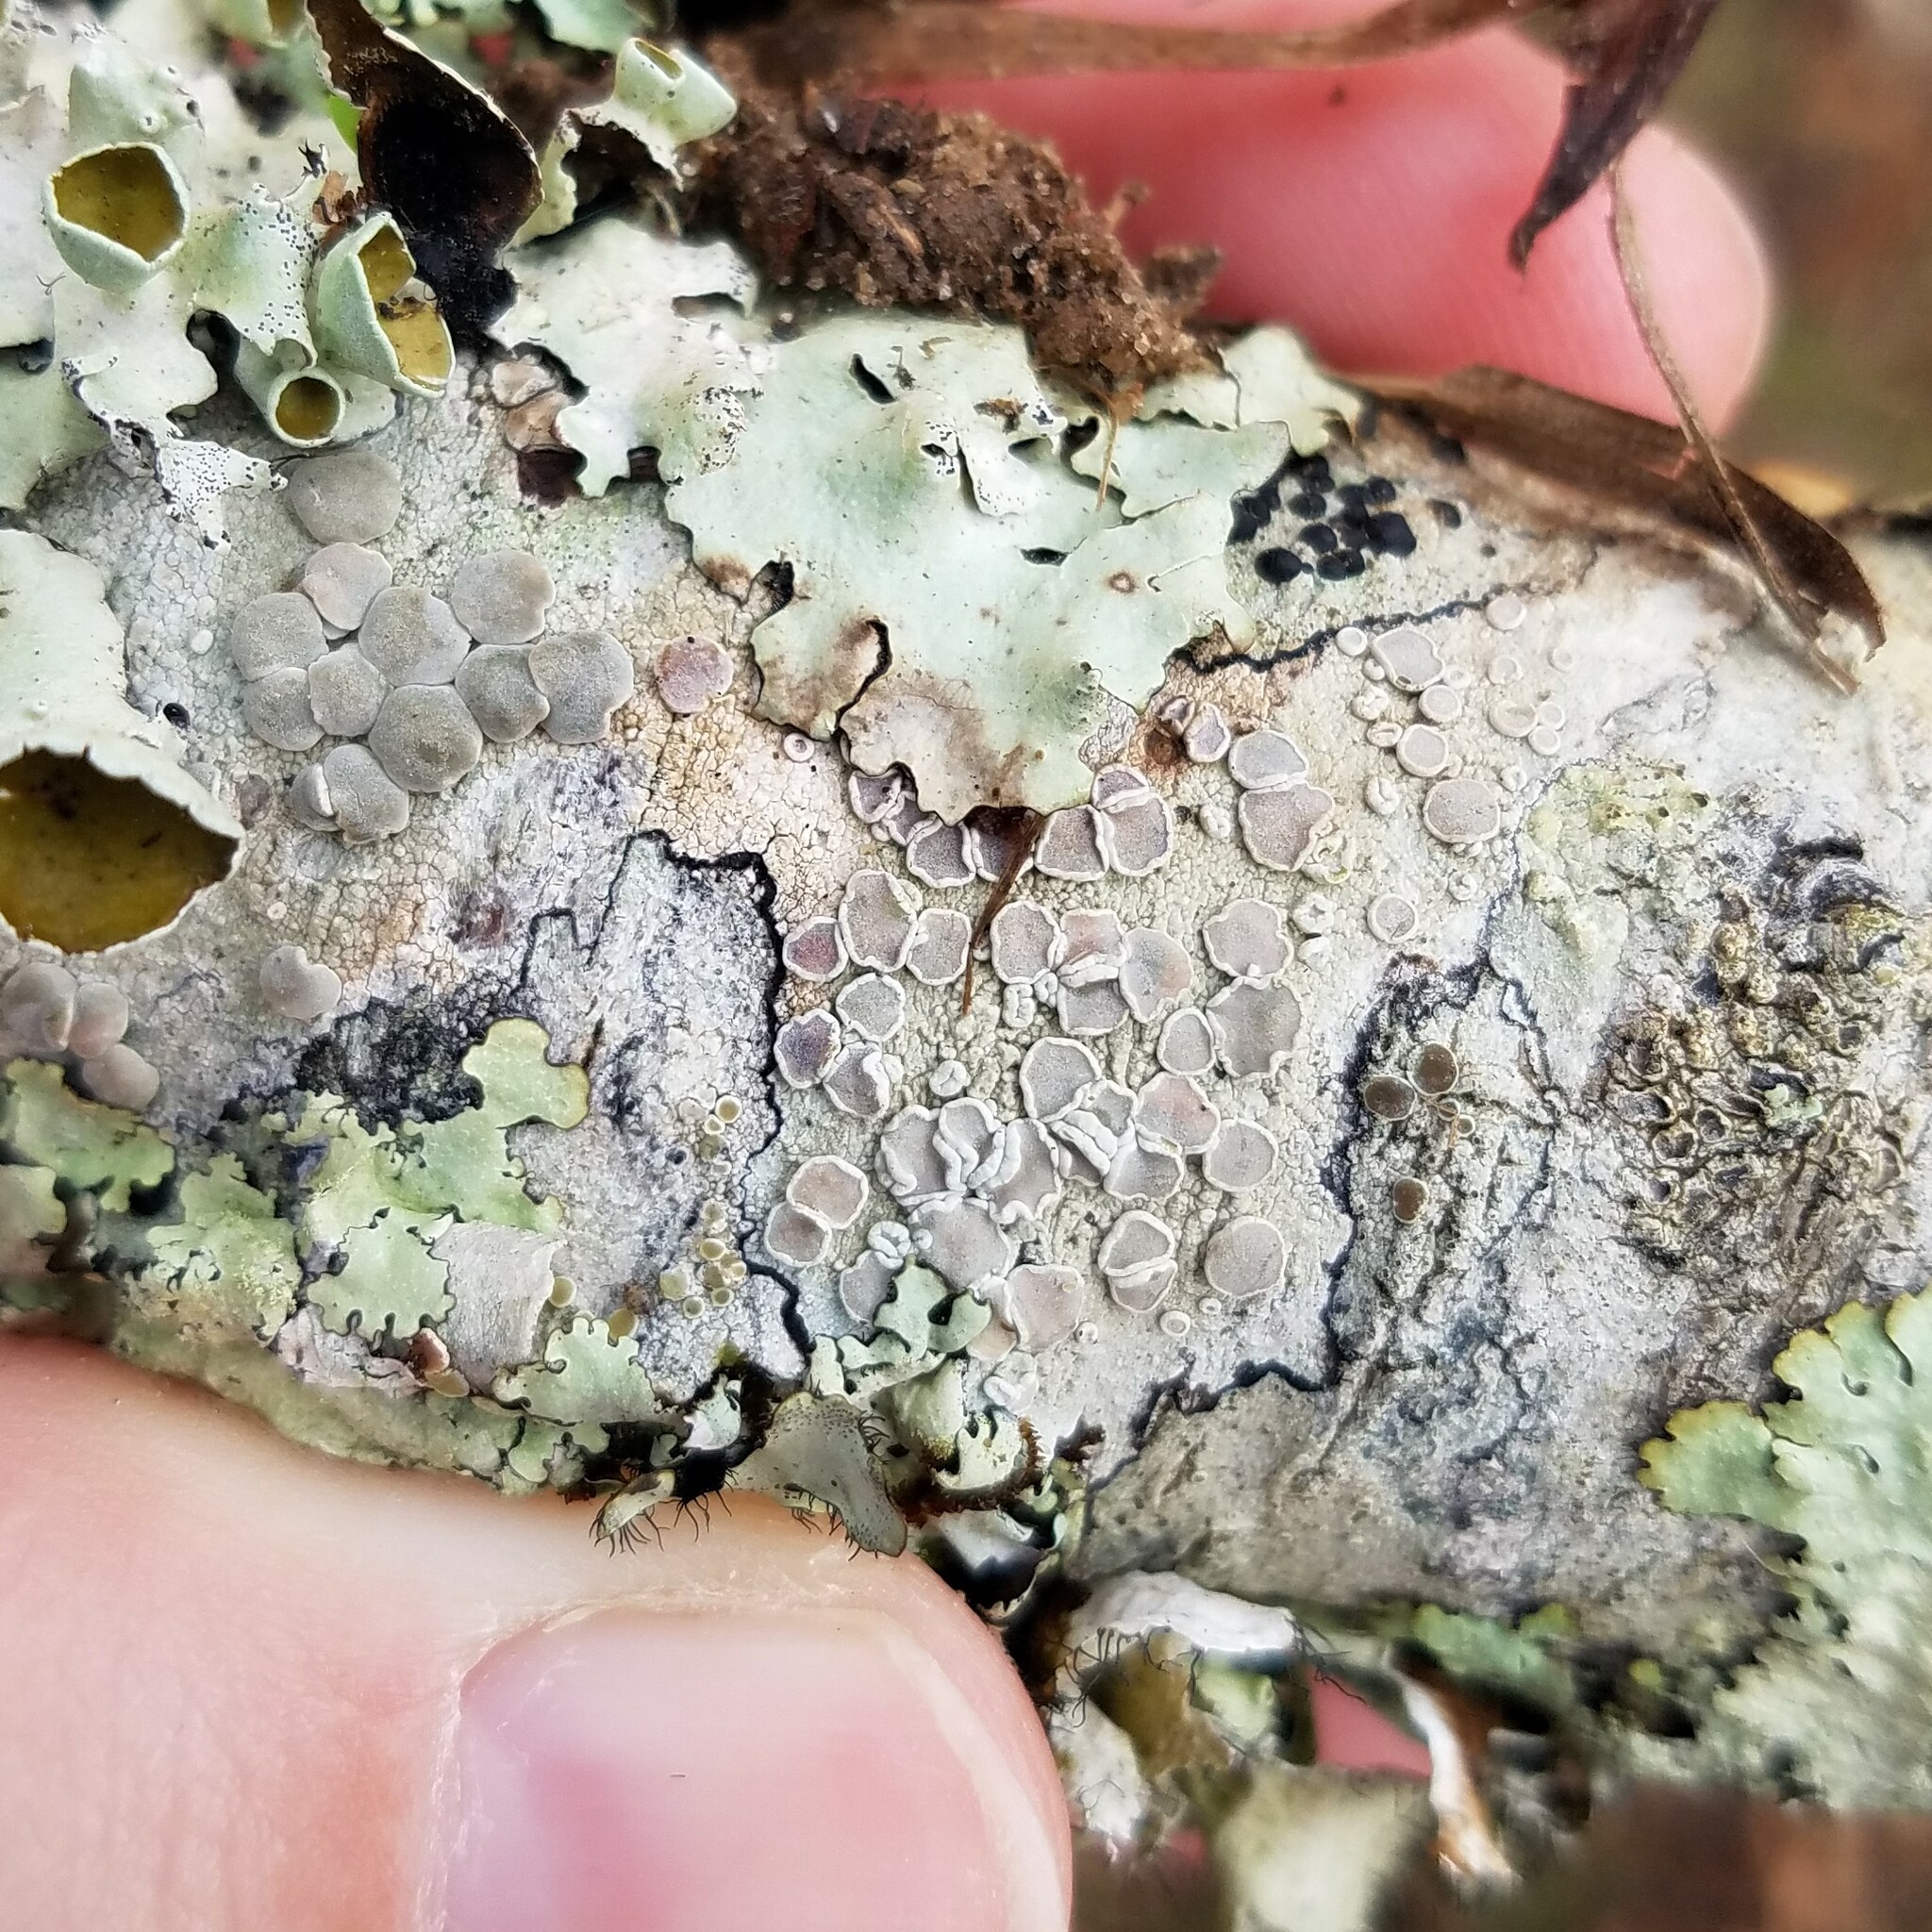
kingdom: Fungi
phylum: Ascomycota
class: Lecanoromycetes
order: Lecanorales
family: Lecanoraceae
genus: Lecanora
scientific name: Lecanora protervula
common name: Lesser dust my discs
